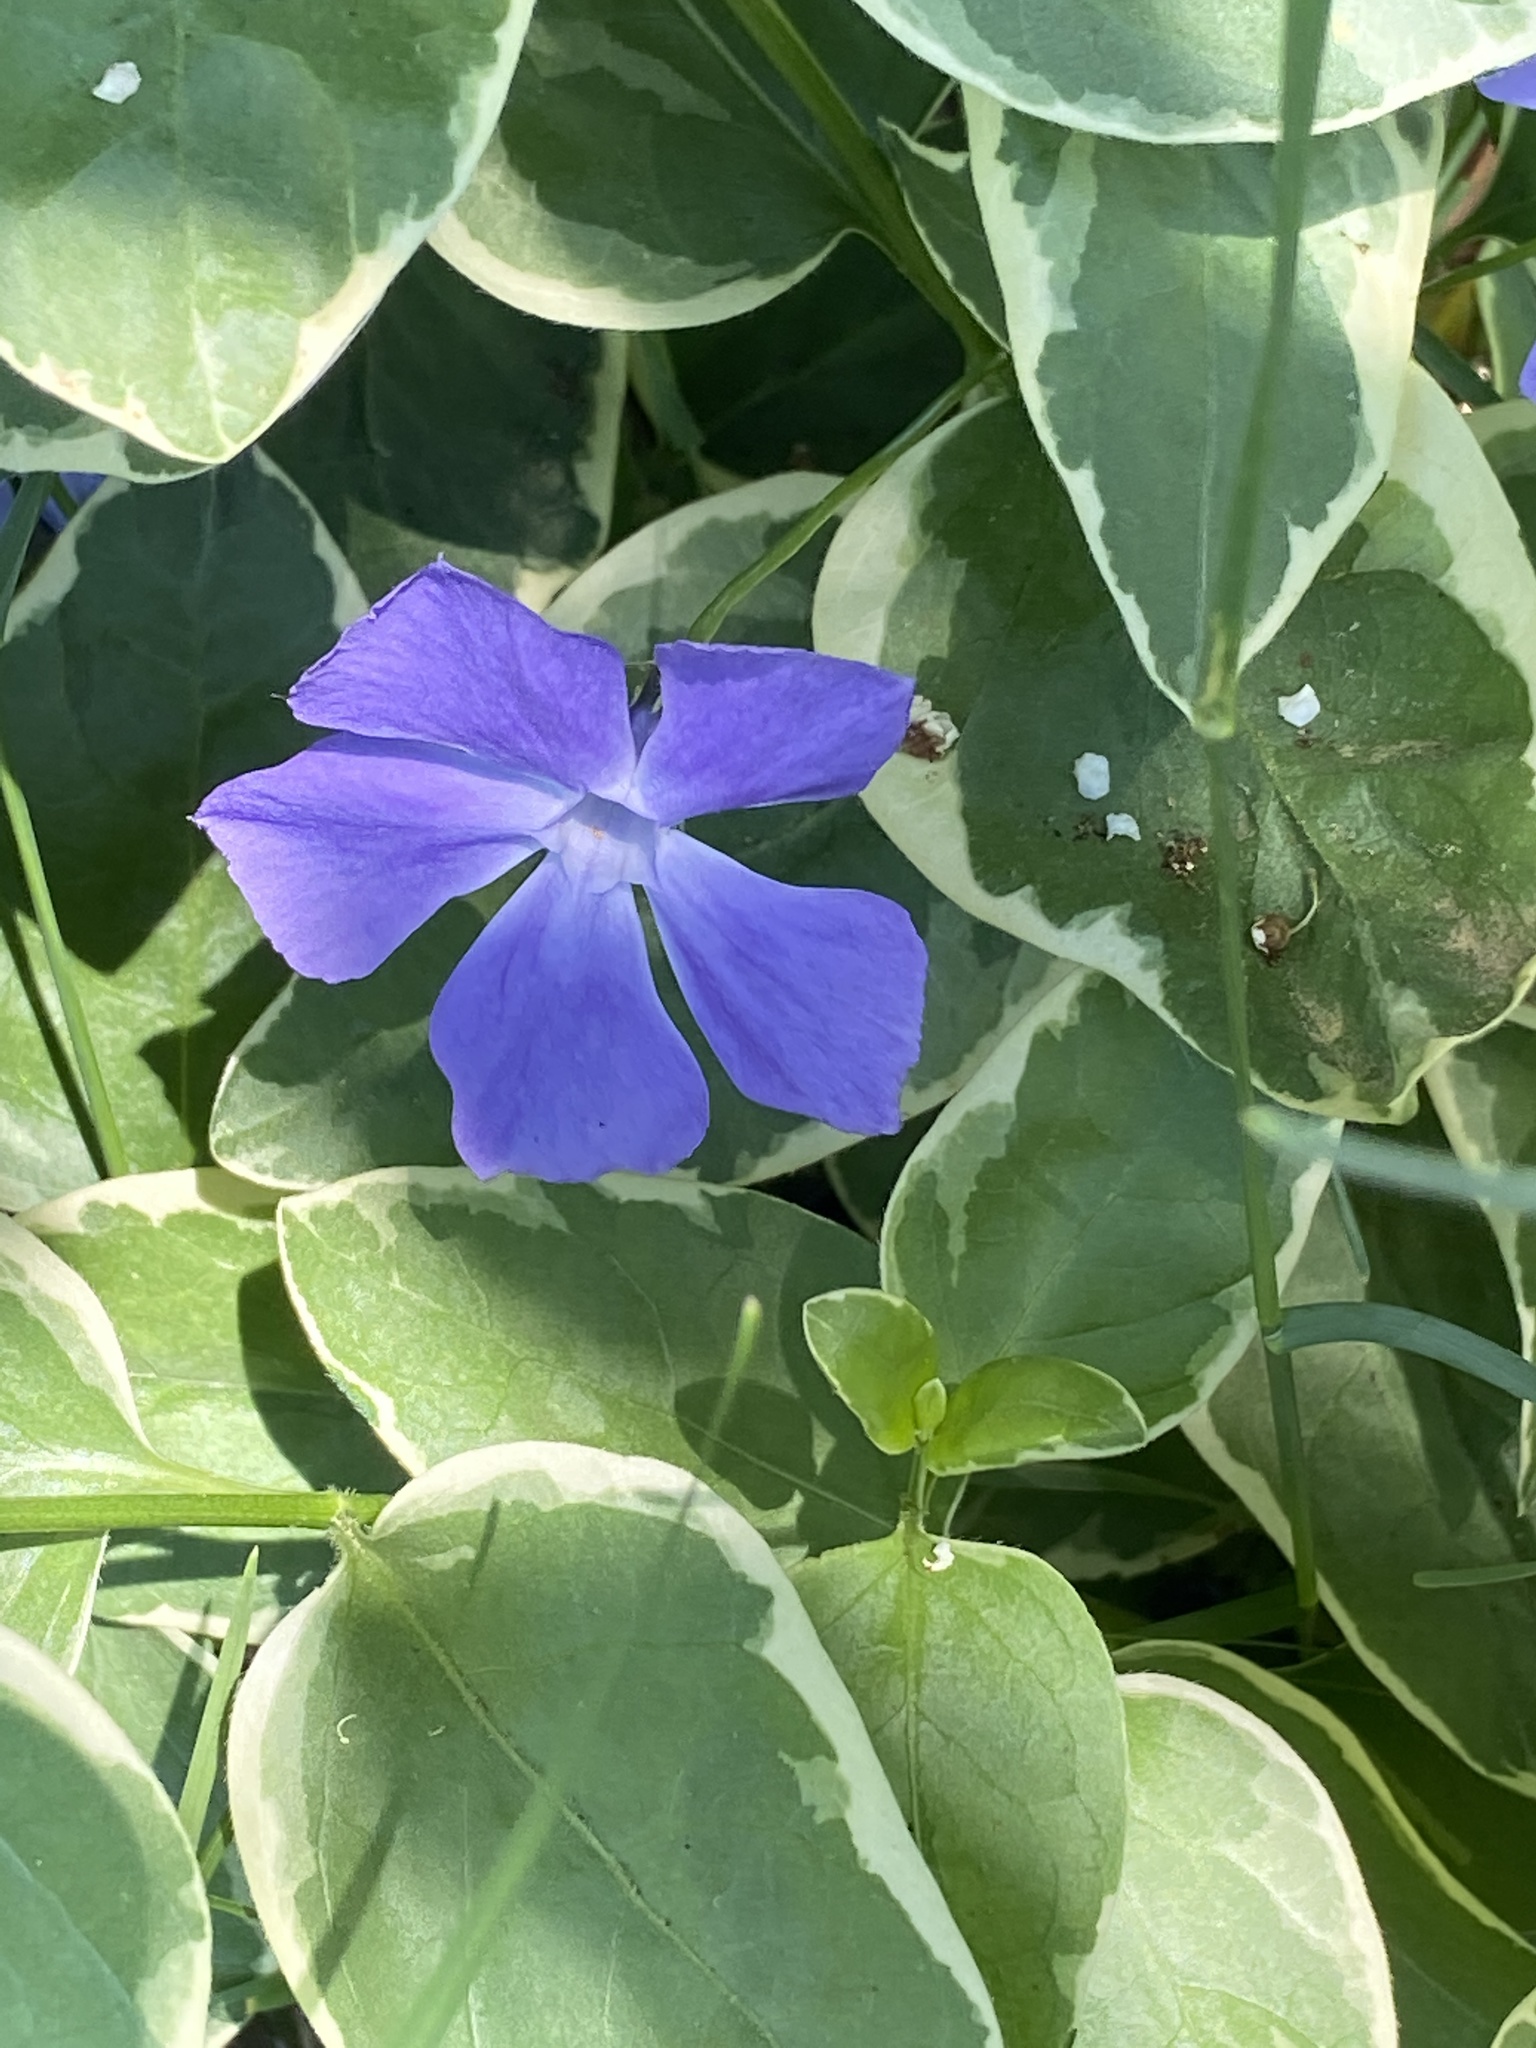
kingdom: Plantae
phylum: Tracheophyta
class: Magnoliopsida
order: Gentianales
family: Apocynaceae
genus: Vinca
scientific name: Vinca major
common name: Greater periwinkle
